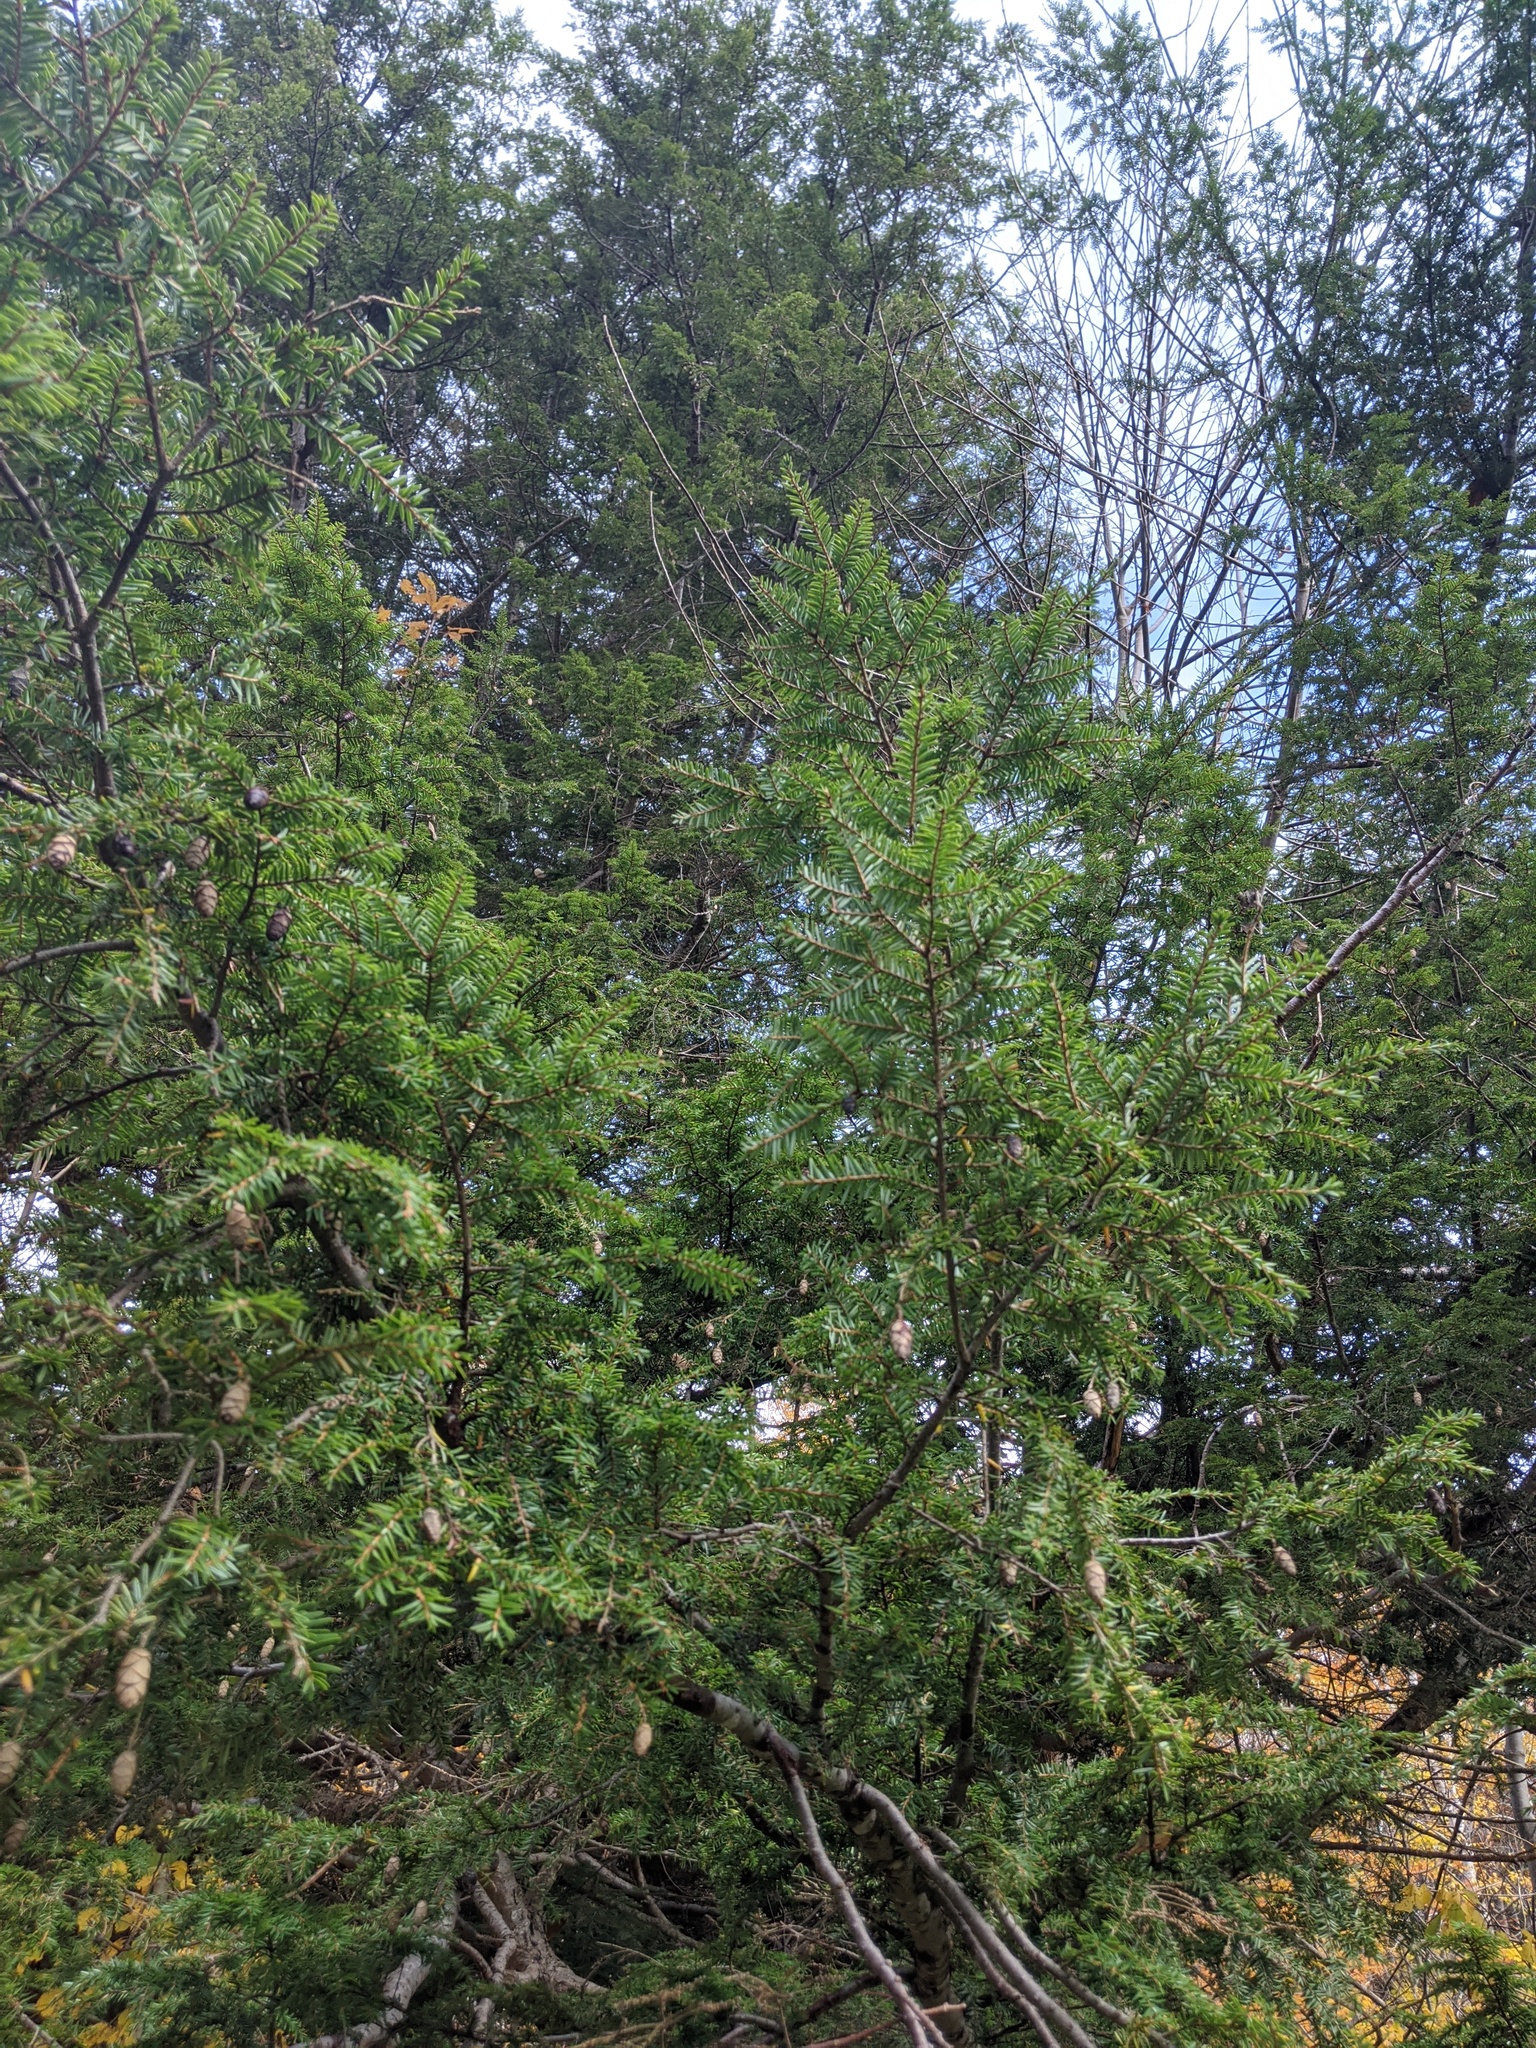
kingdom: Plantae
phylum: Tracheophyta
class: Pinopsida
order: Pinales
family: Pinaceae
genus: Tsuga
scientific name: Tsuga canadensis
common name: Eastern hemlock
